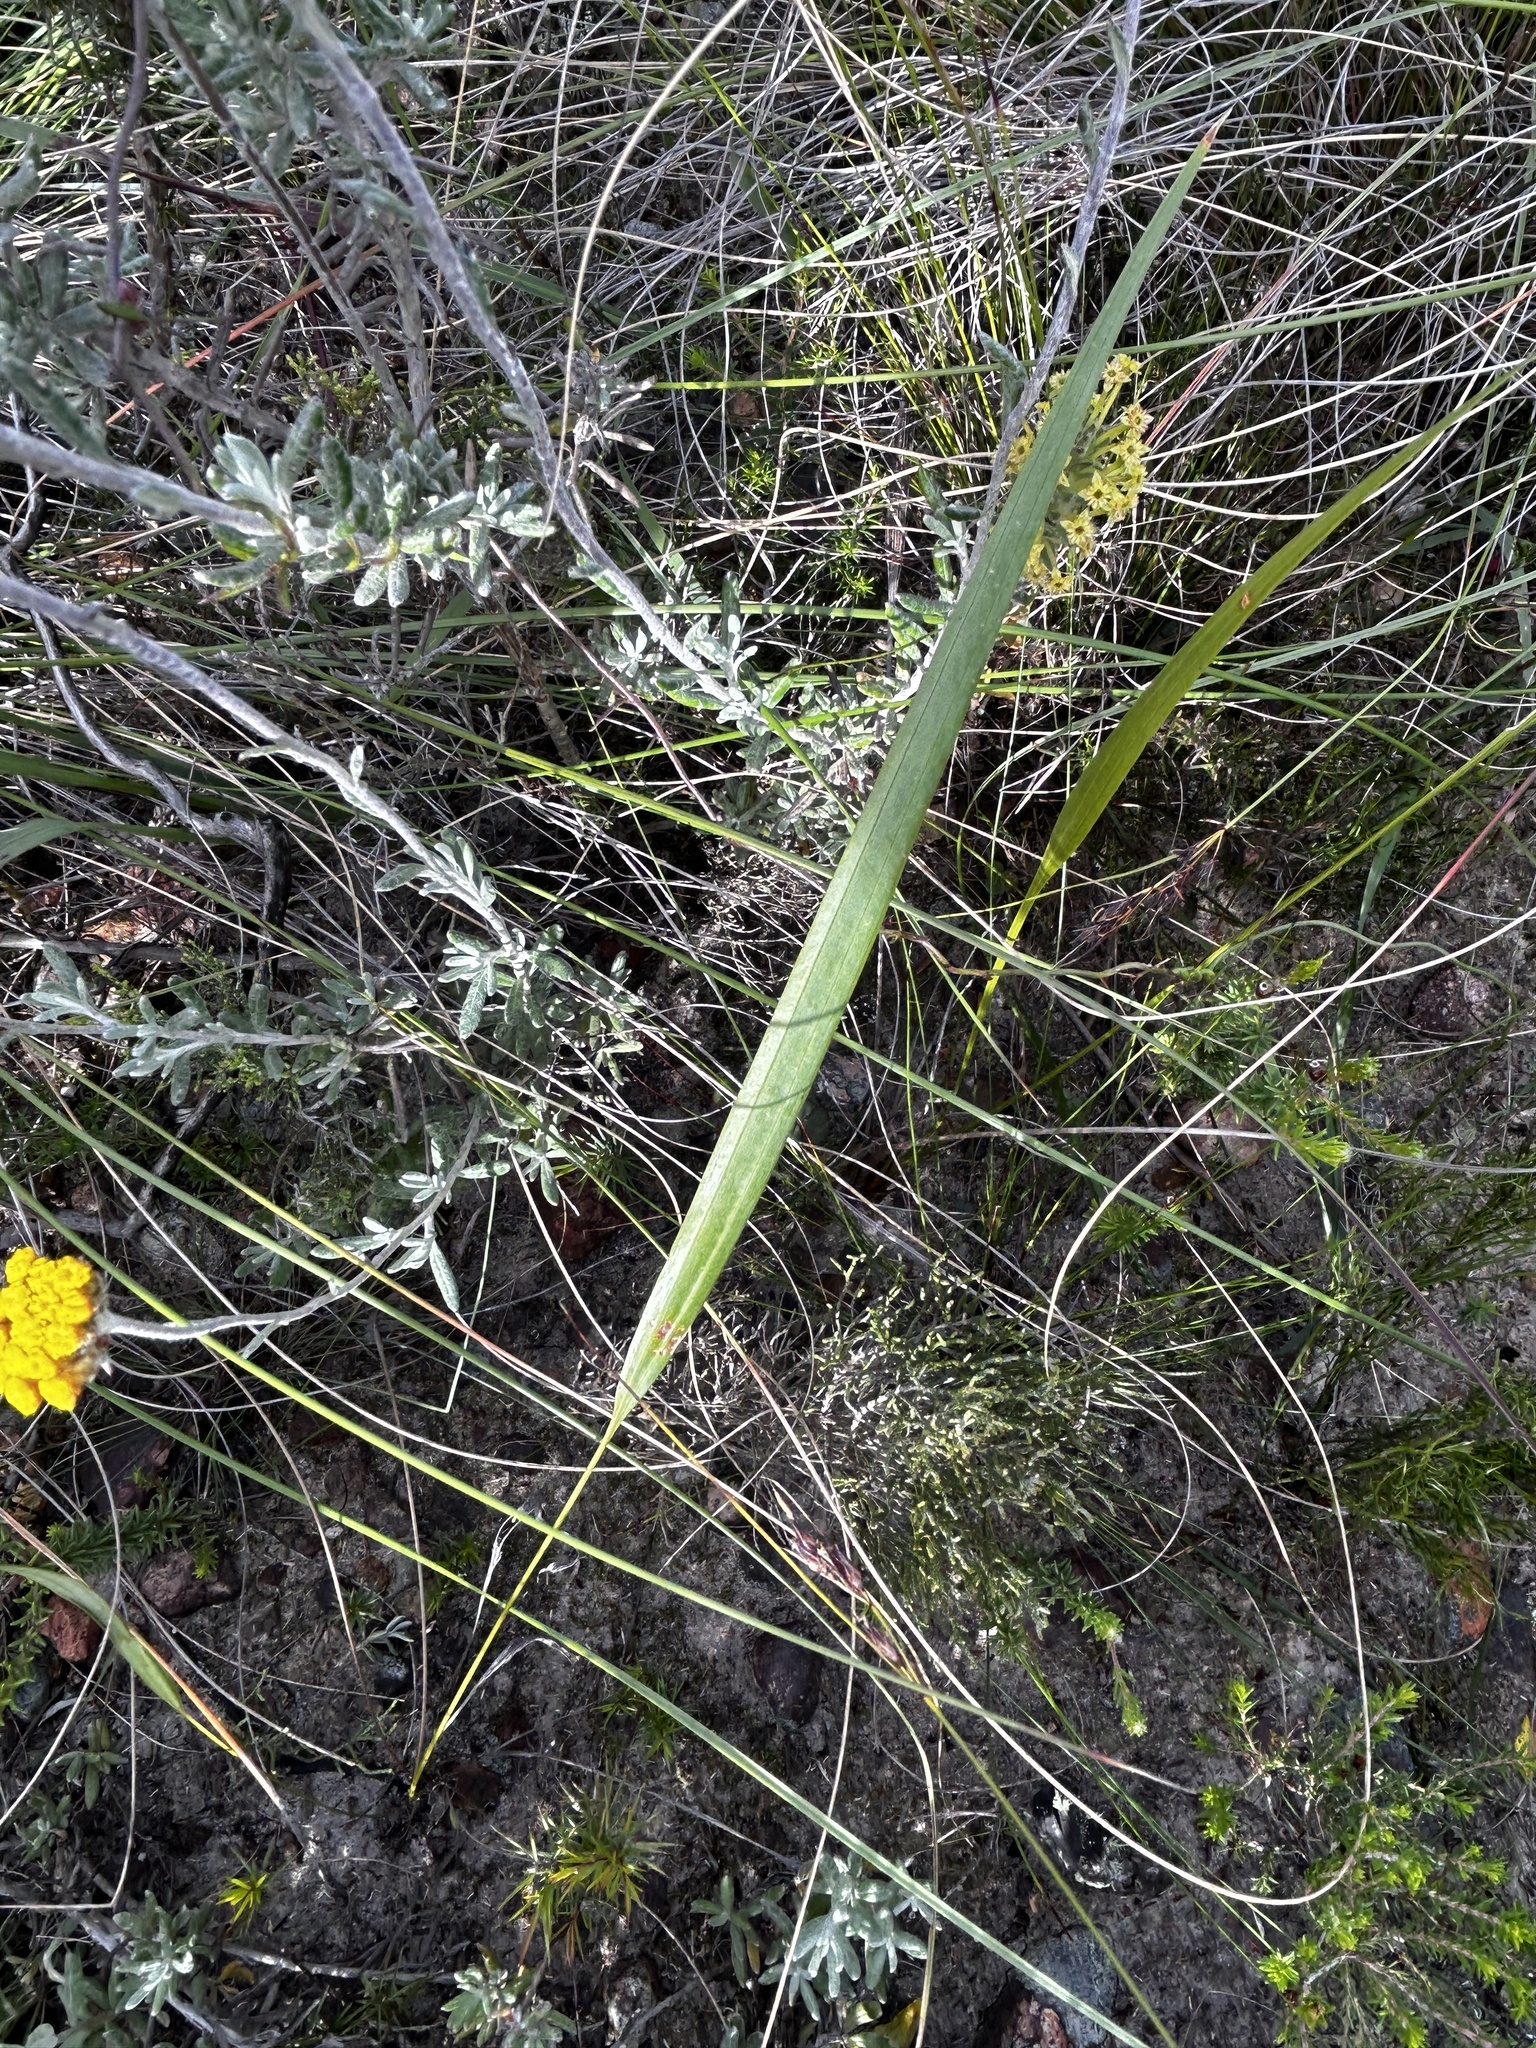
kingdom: Plantae
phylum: Tracheophyta
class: Liliopsida
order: Asparagales
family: Iridaceae
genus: Tritoniopsis
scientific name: Tritoniopsis triticea
